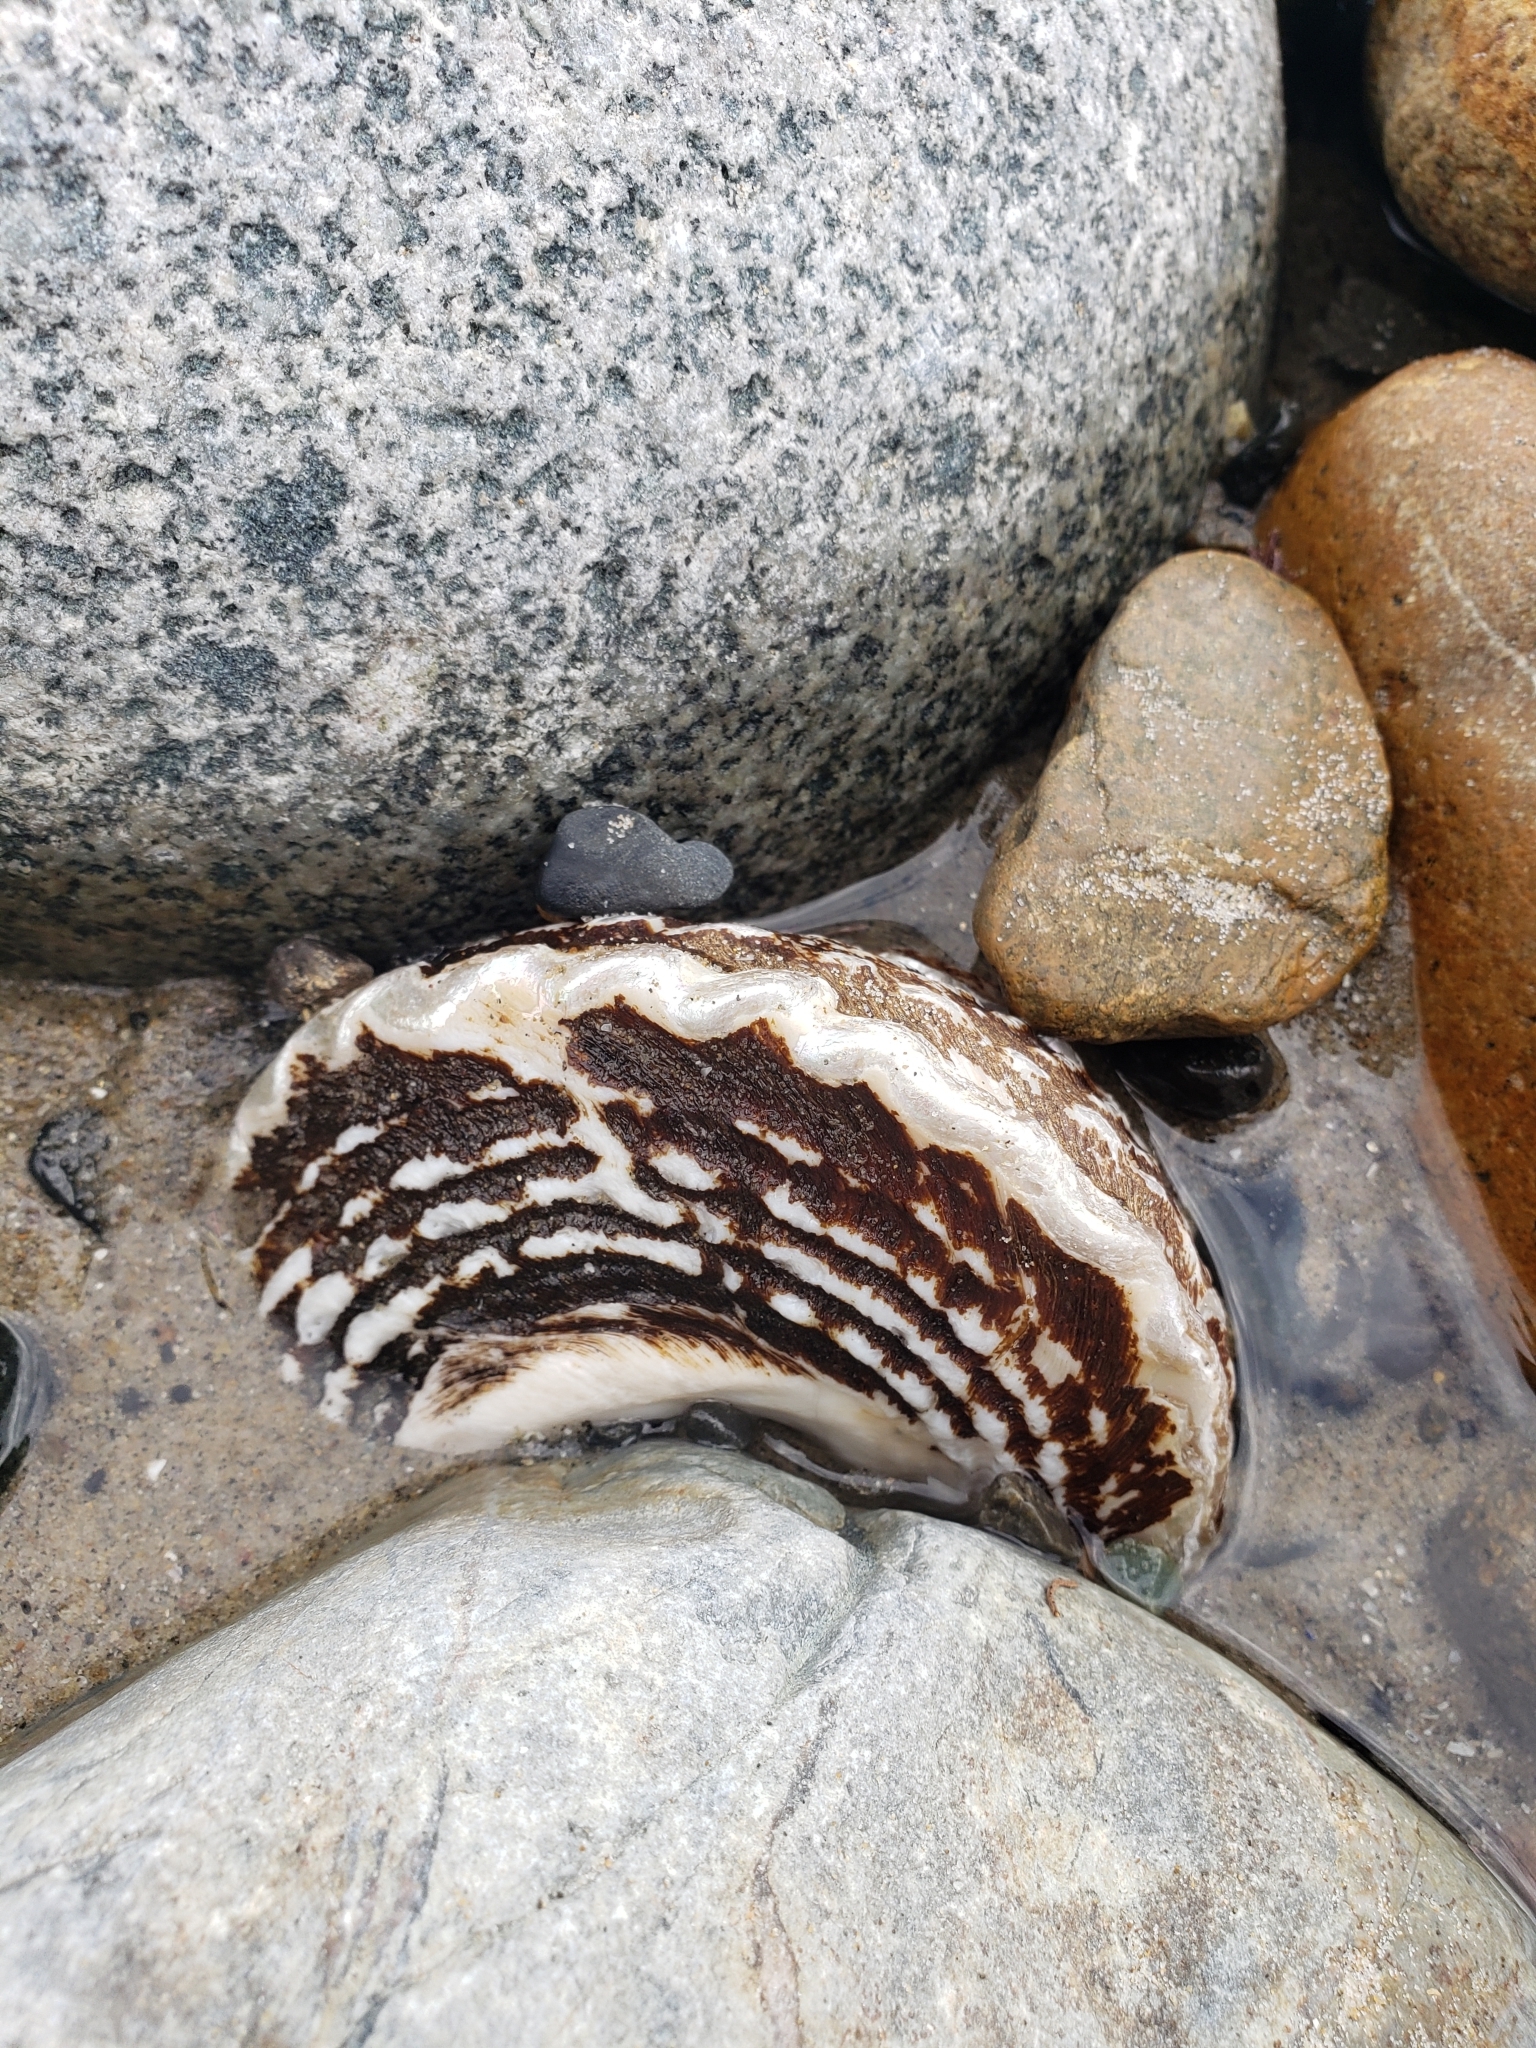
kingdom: Animalia
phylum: Mollusca
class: Gastropoda
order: Trochida
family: Turbinidae
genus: Megastraea
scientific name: Megastraea undosa
